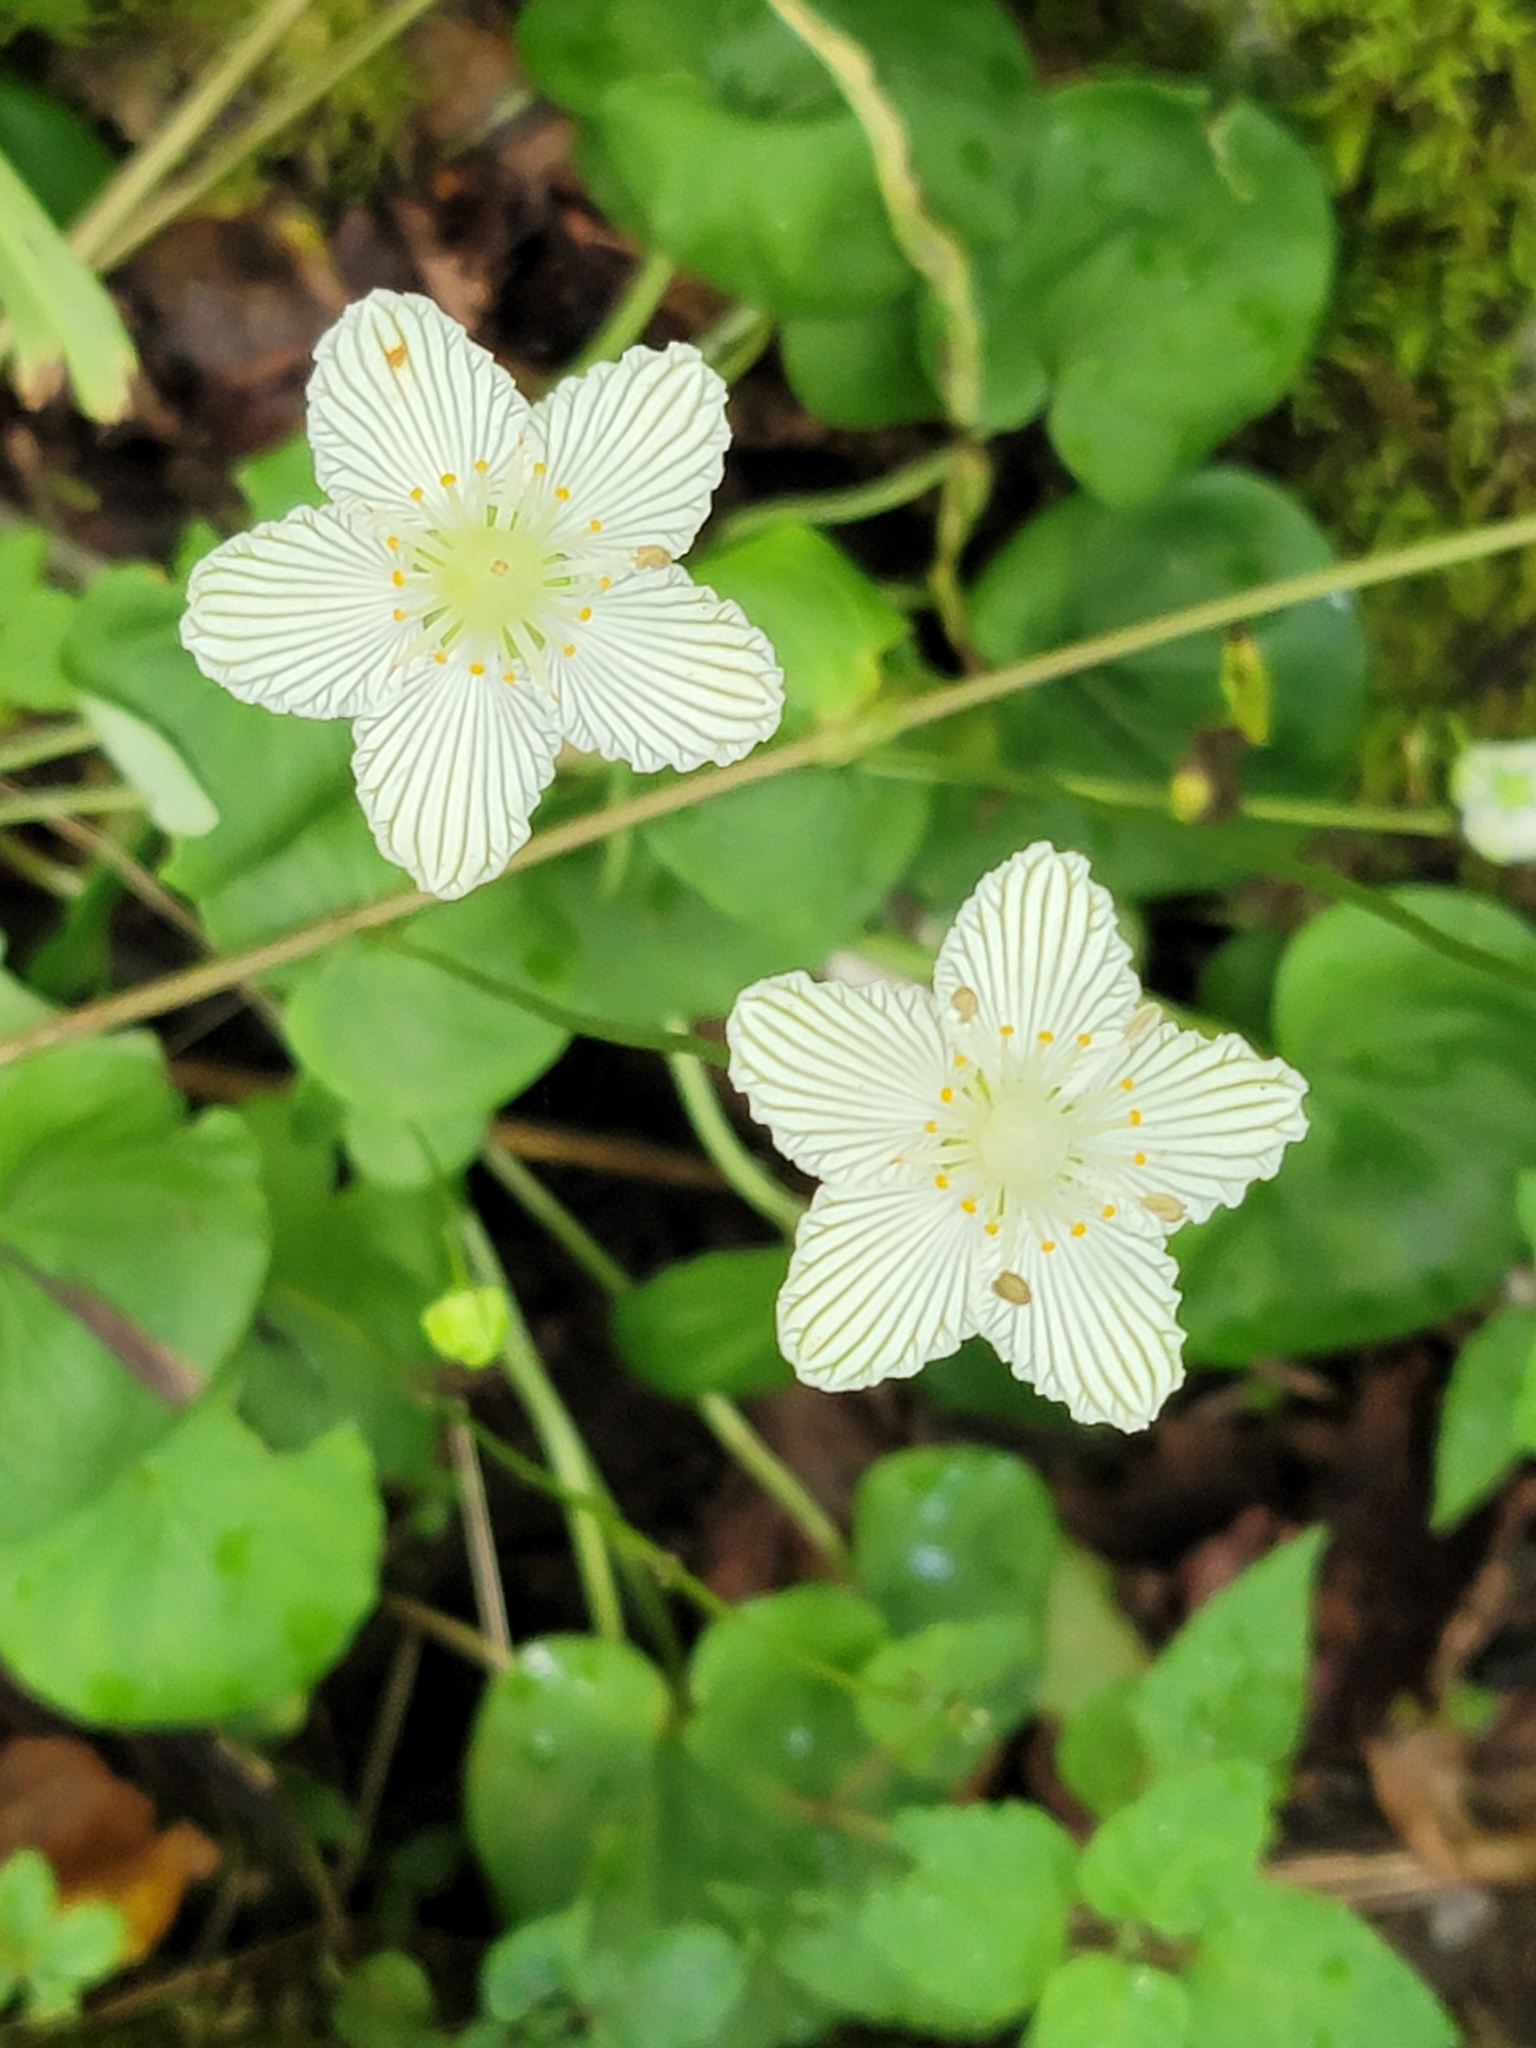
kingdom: Plantae
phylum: Tracheophyta
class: Magnoliopsida
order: Celastrales
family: Parnassiaceae
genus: Parnassia
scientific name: Parnassia asarifolia
